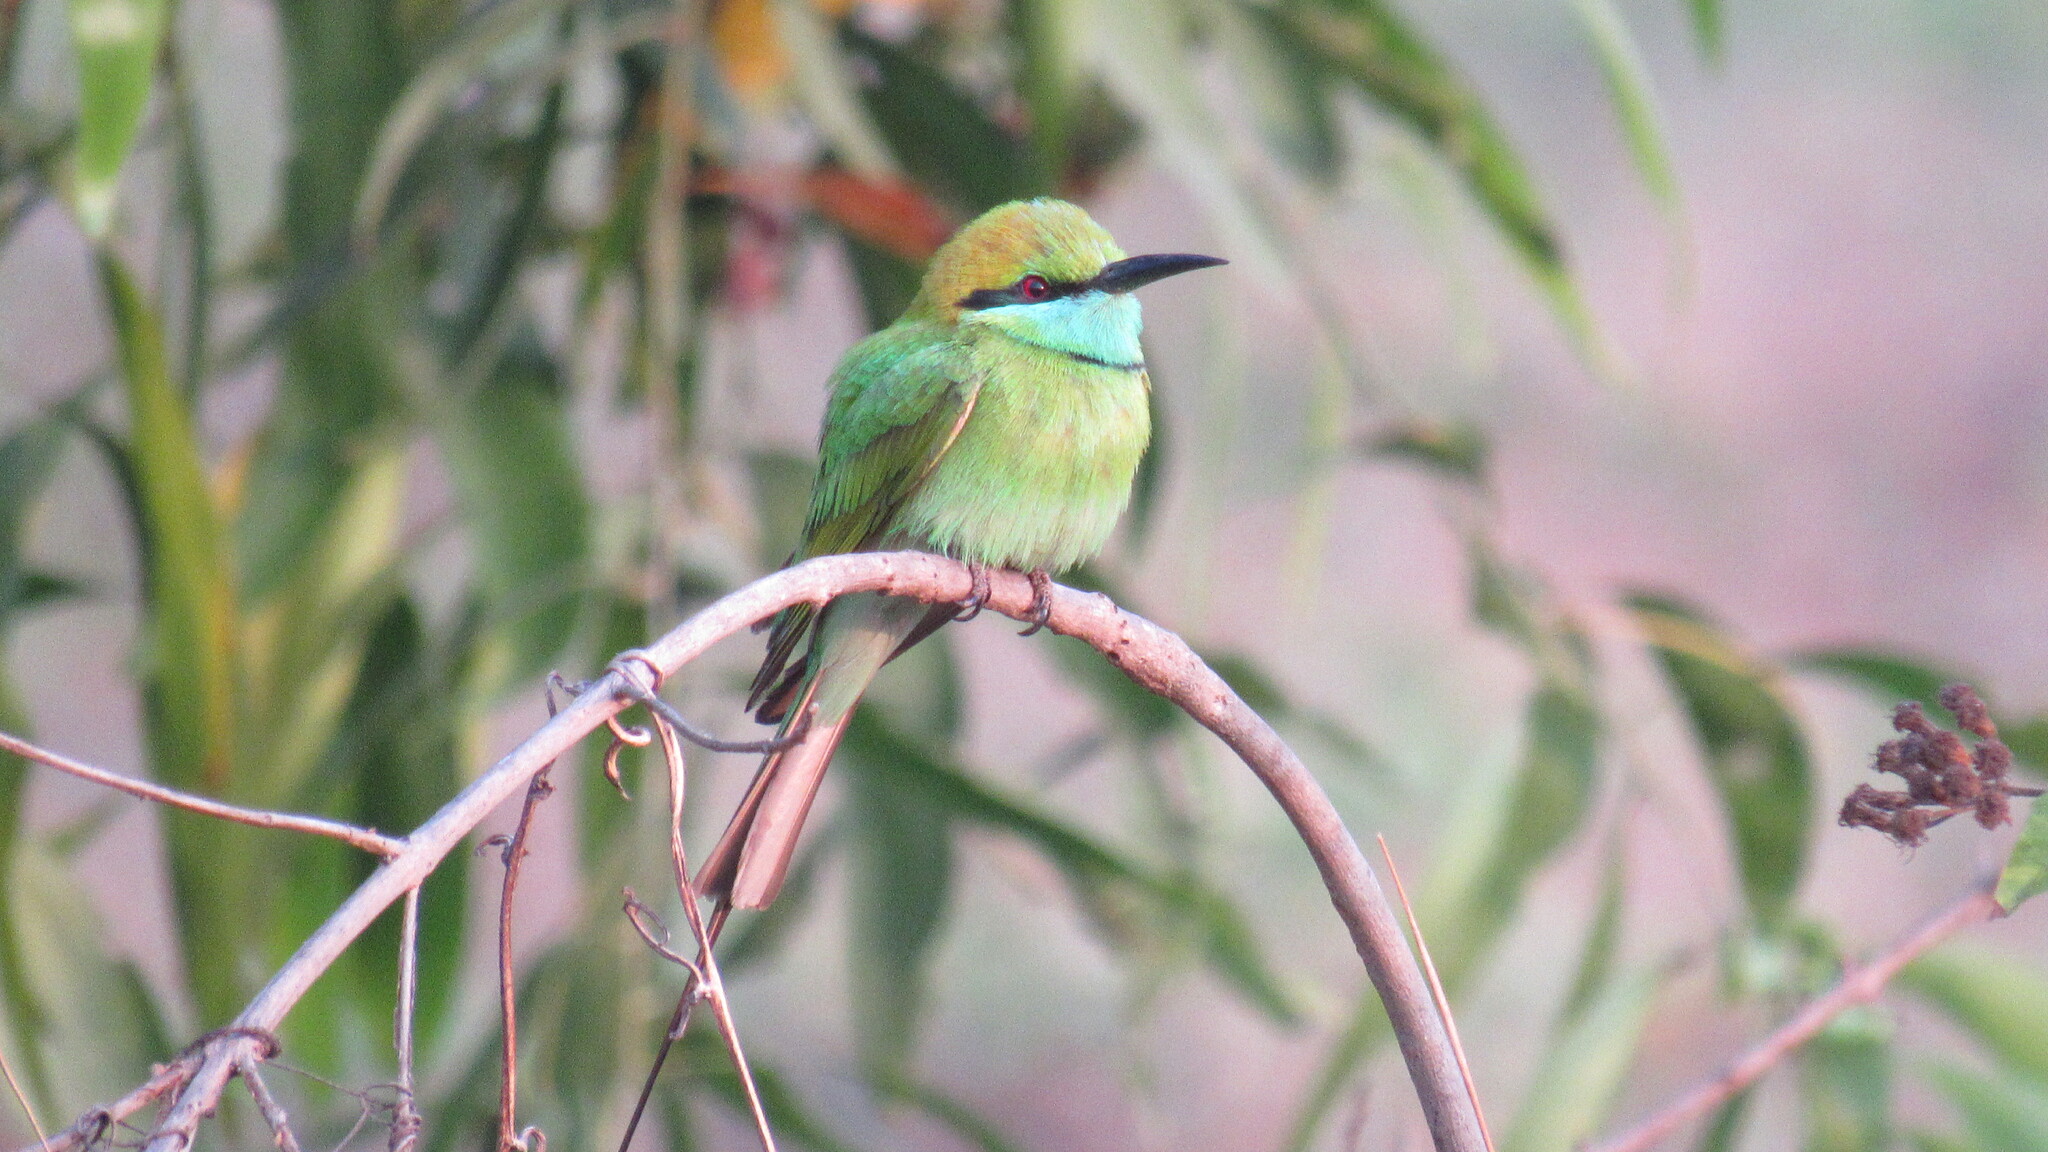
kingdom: Animalia
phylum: Chordata
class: Aves
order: Coraciiformes
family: Meropidae
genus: Merops
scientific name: Merops orientalis
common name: Green bee-eater
